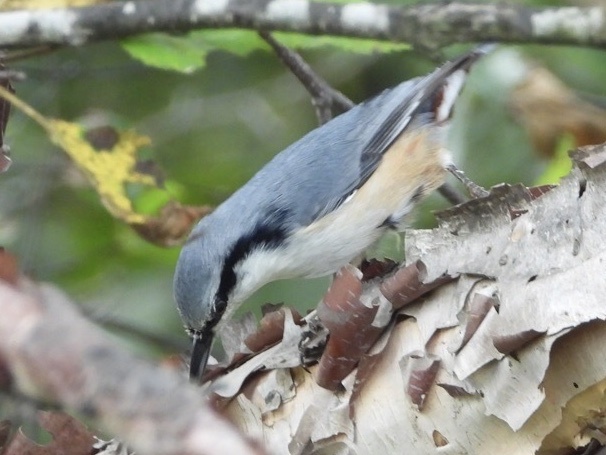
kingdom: Animalia
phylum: Chordata
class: Aves
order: Passeriformes
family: Sittidae
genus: Sitta
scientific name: Sitta europaea
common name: Eurasian nuthatch
